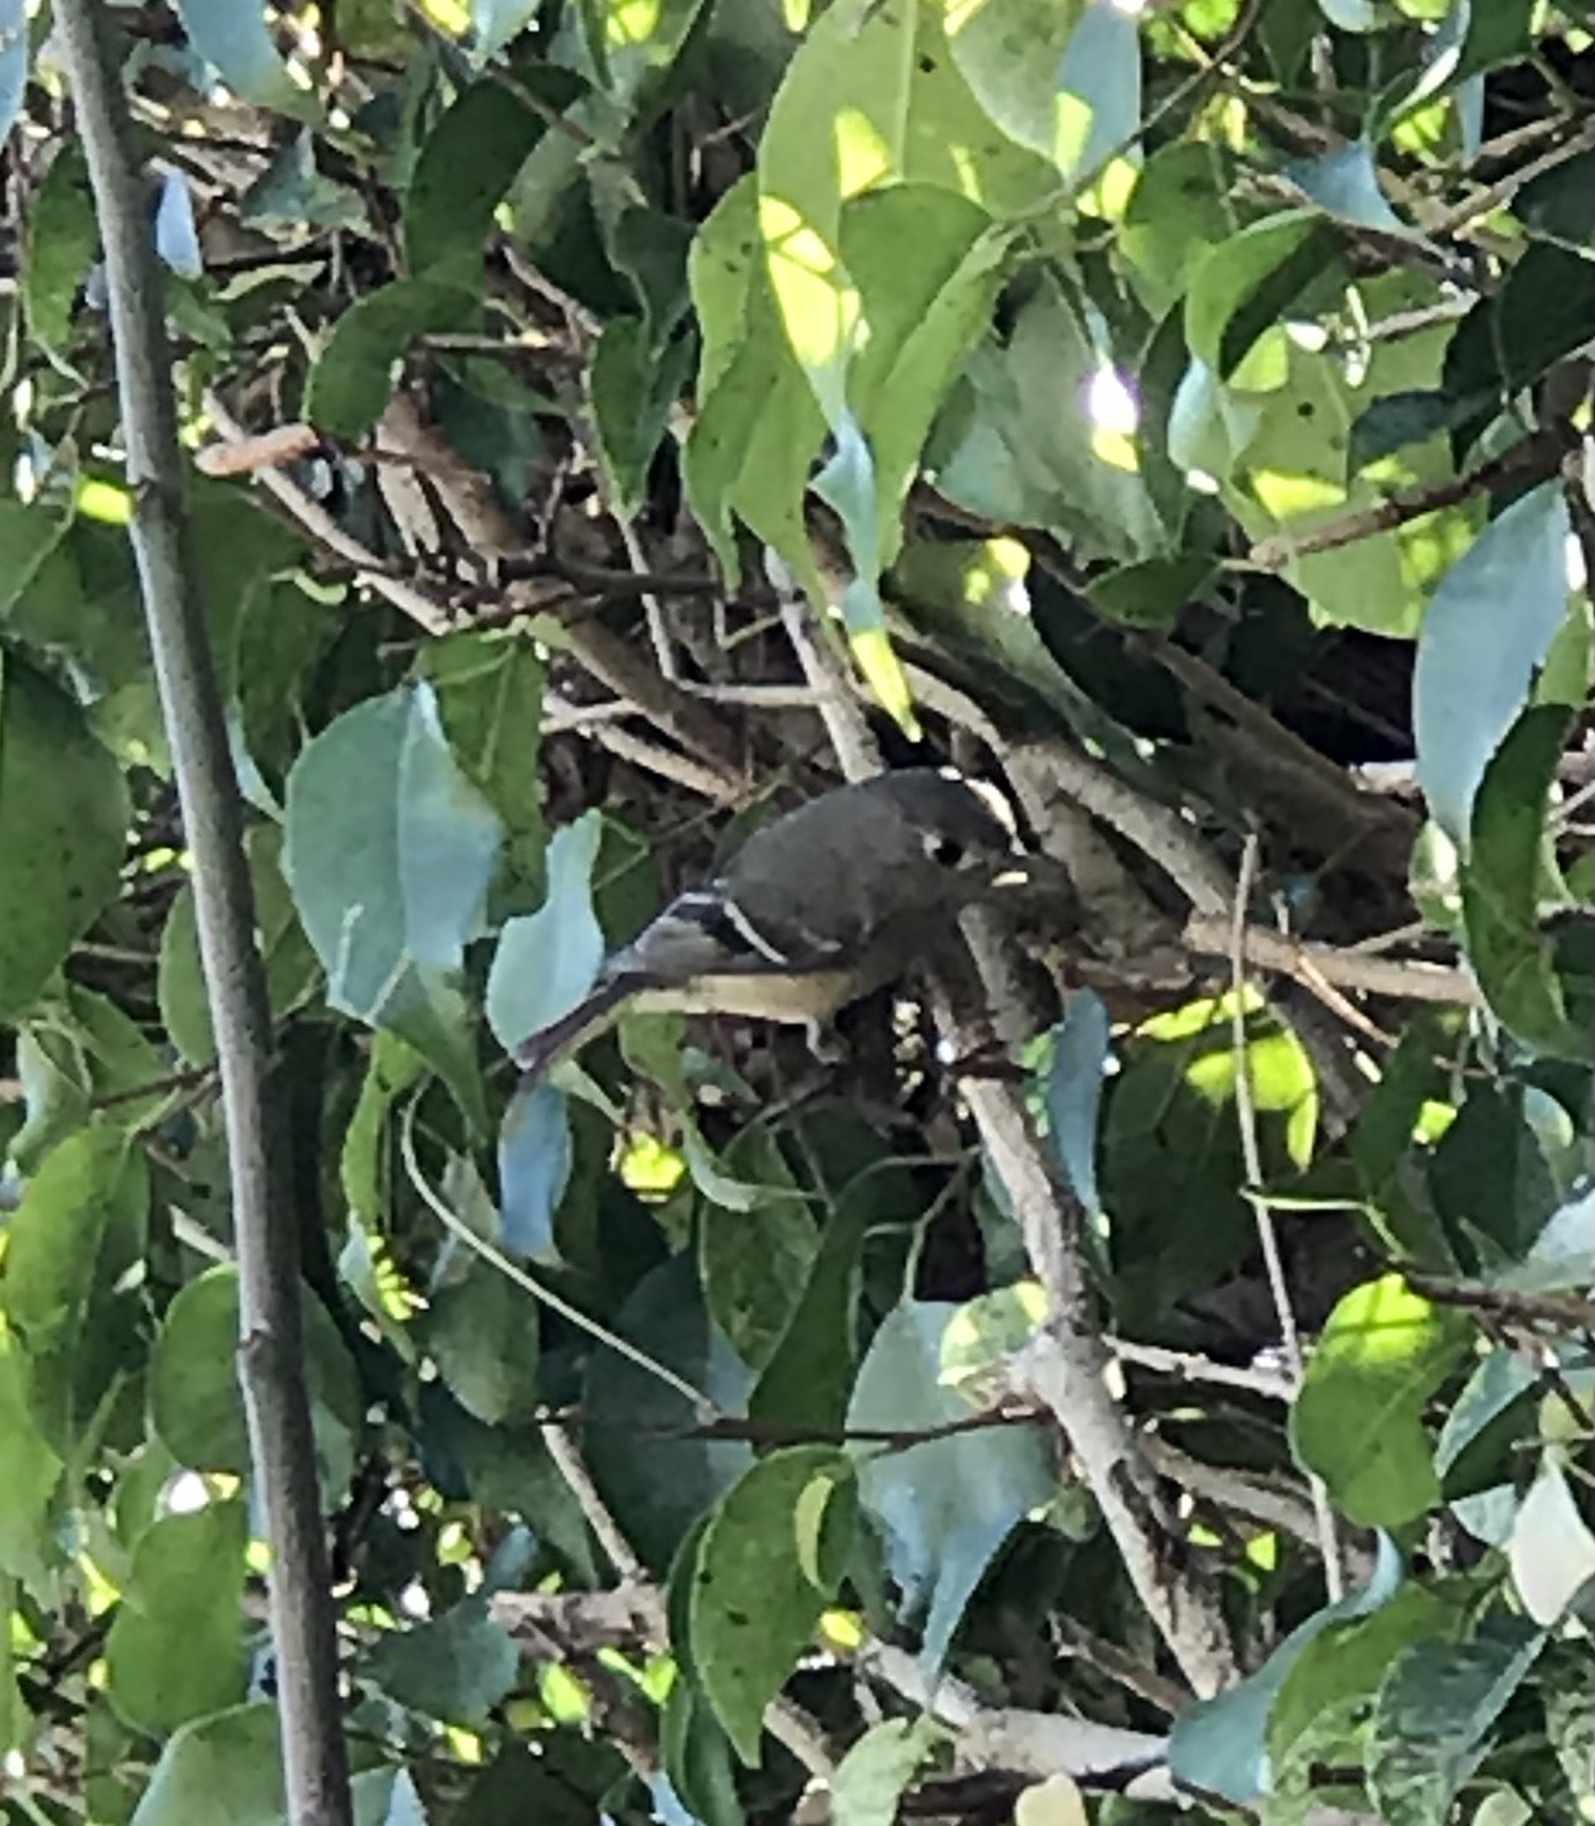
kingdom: Animalia
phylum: Chordata
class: Aves
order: Passeriformes
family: Regulidae
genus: Regulus
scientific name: Regulus calendula
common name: Ruby-crowned kinglet
